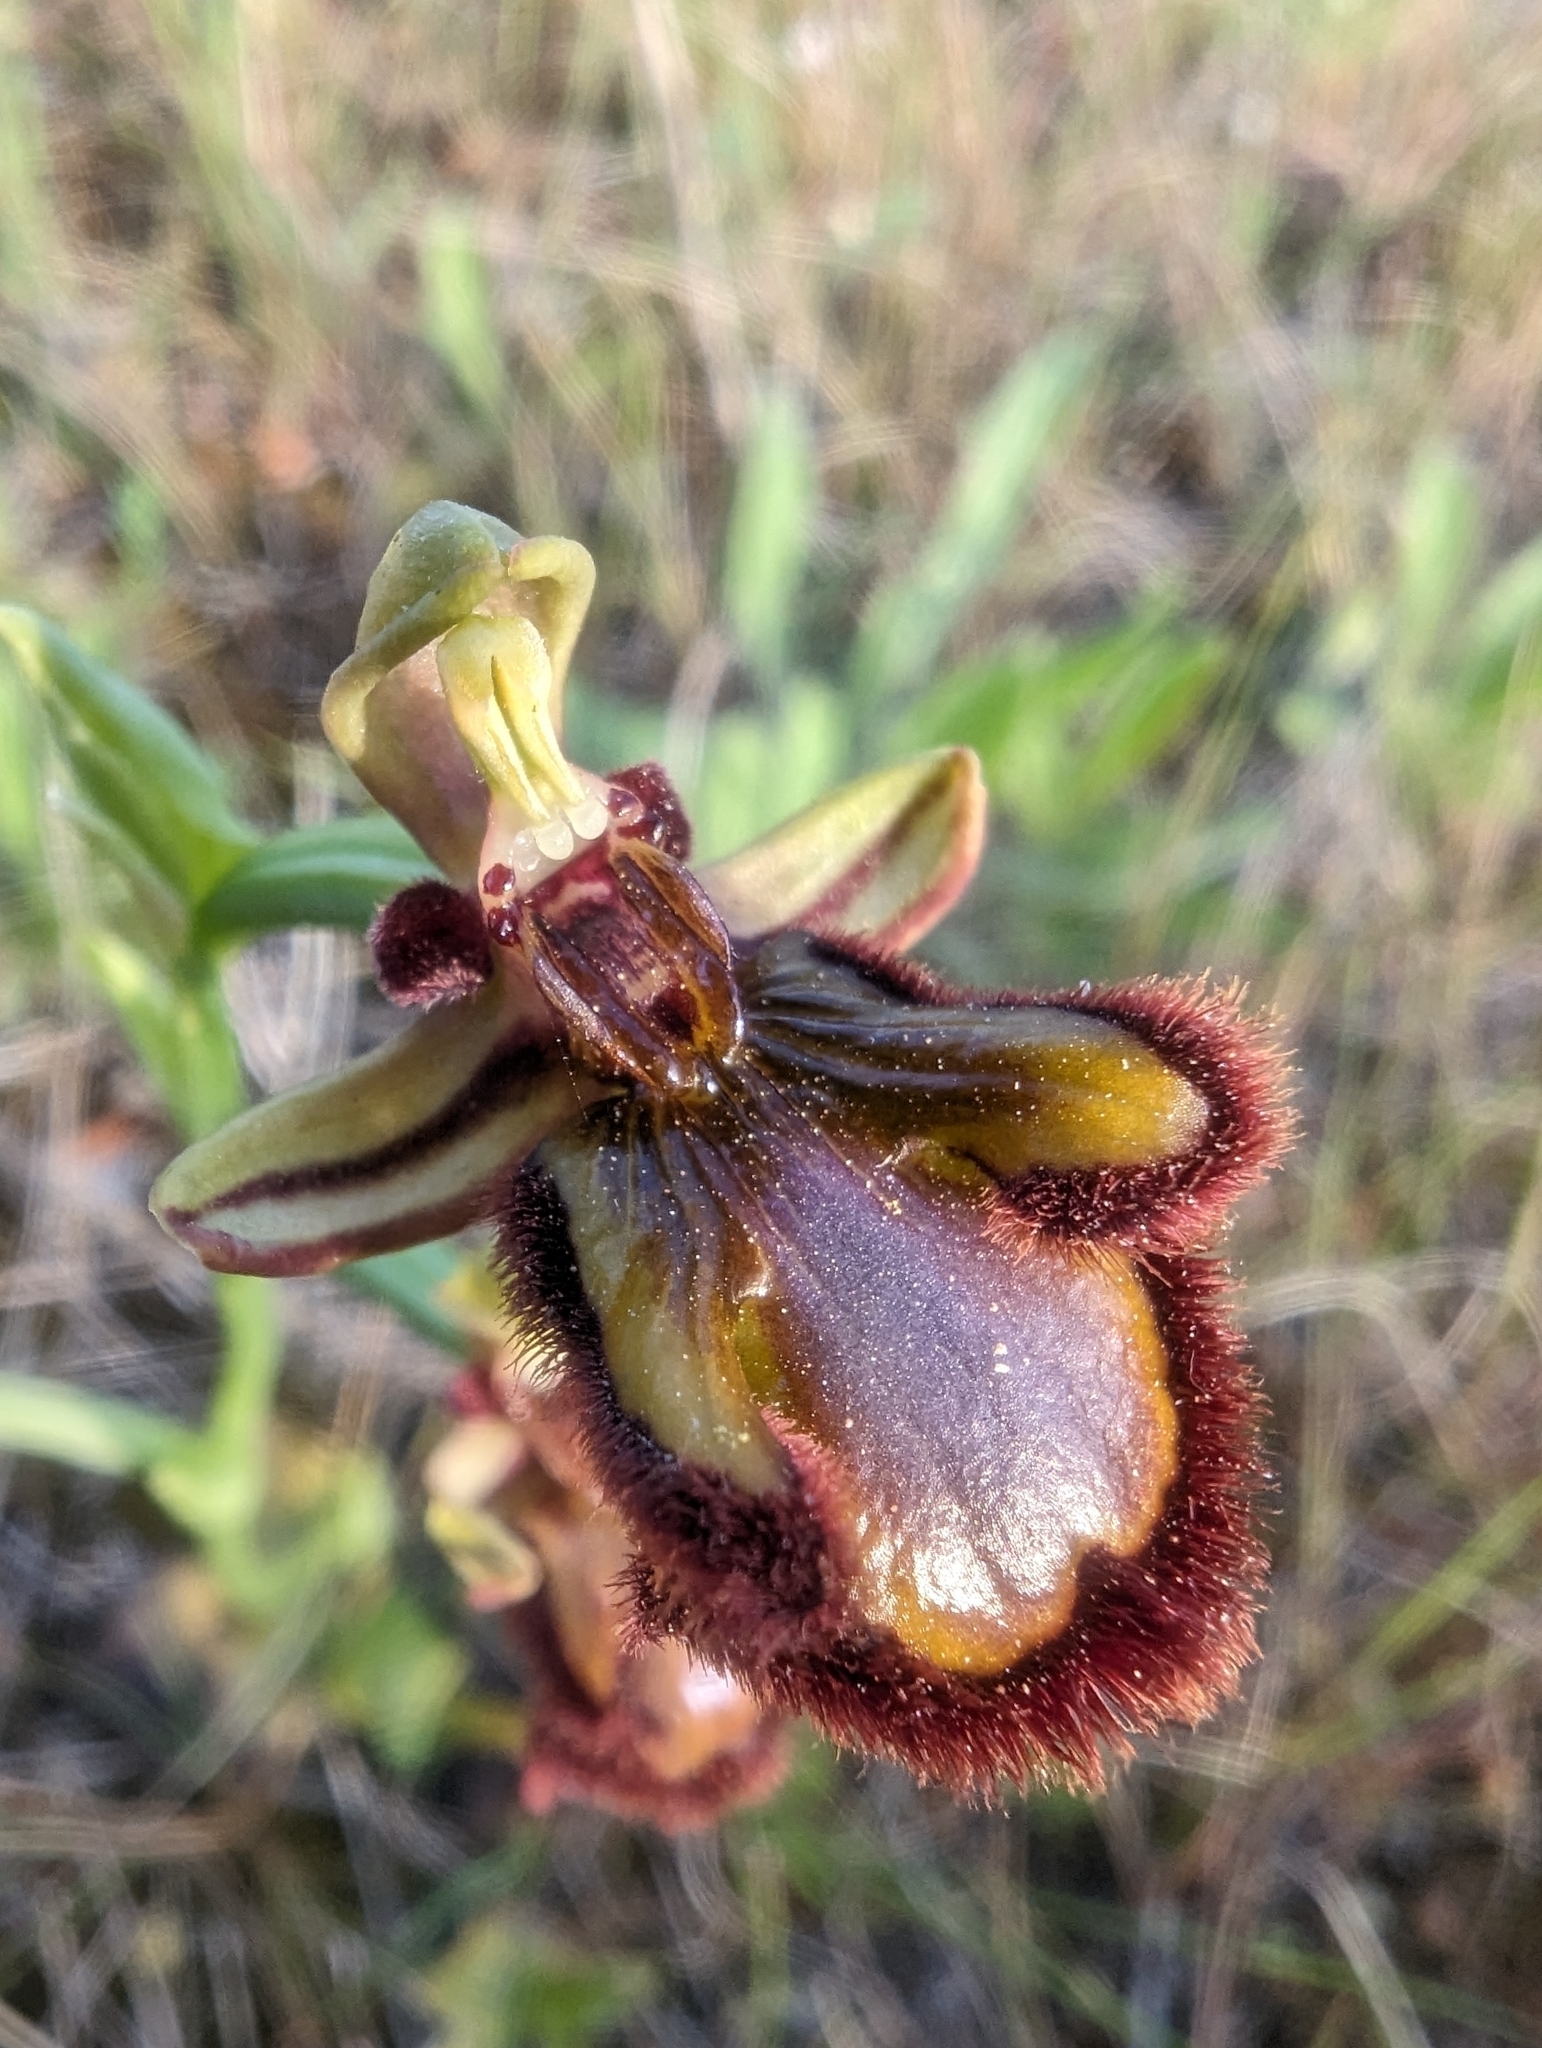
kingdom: Plantae
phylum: Tracheophyta
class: Liliopsida
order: Asparagales
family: Orchidaceae
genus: Ophrys
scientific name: Ophrys speculum
